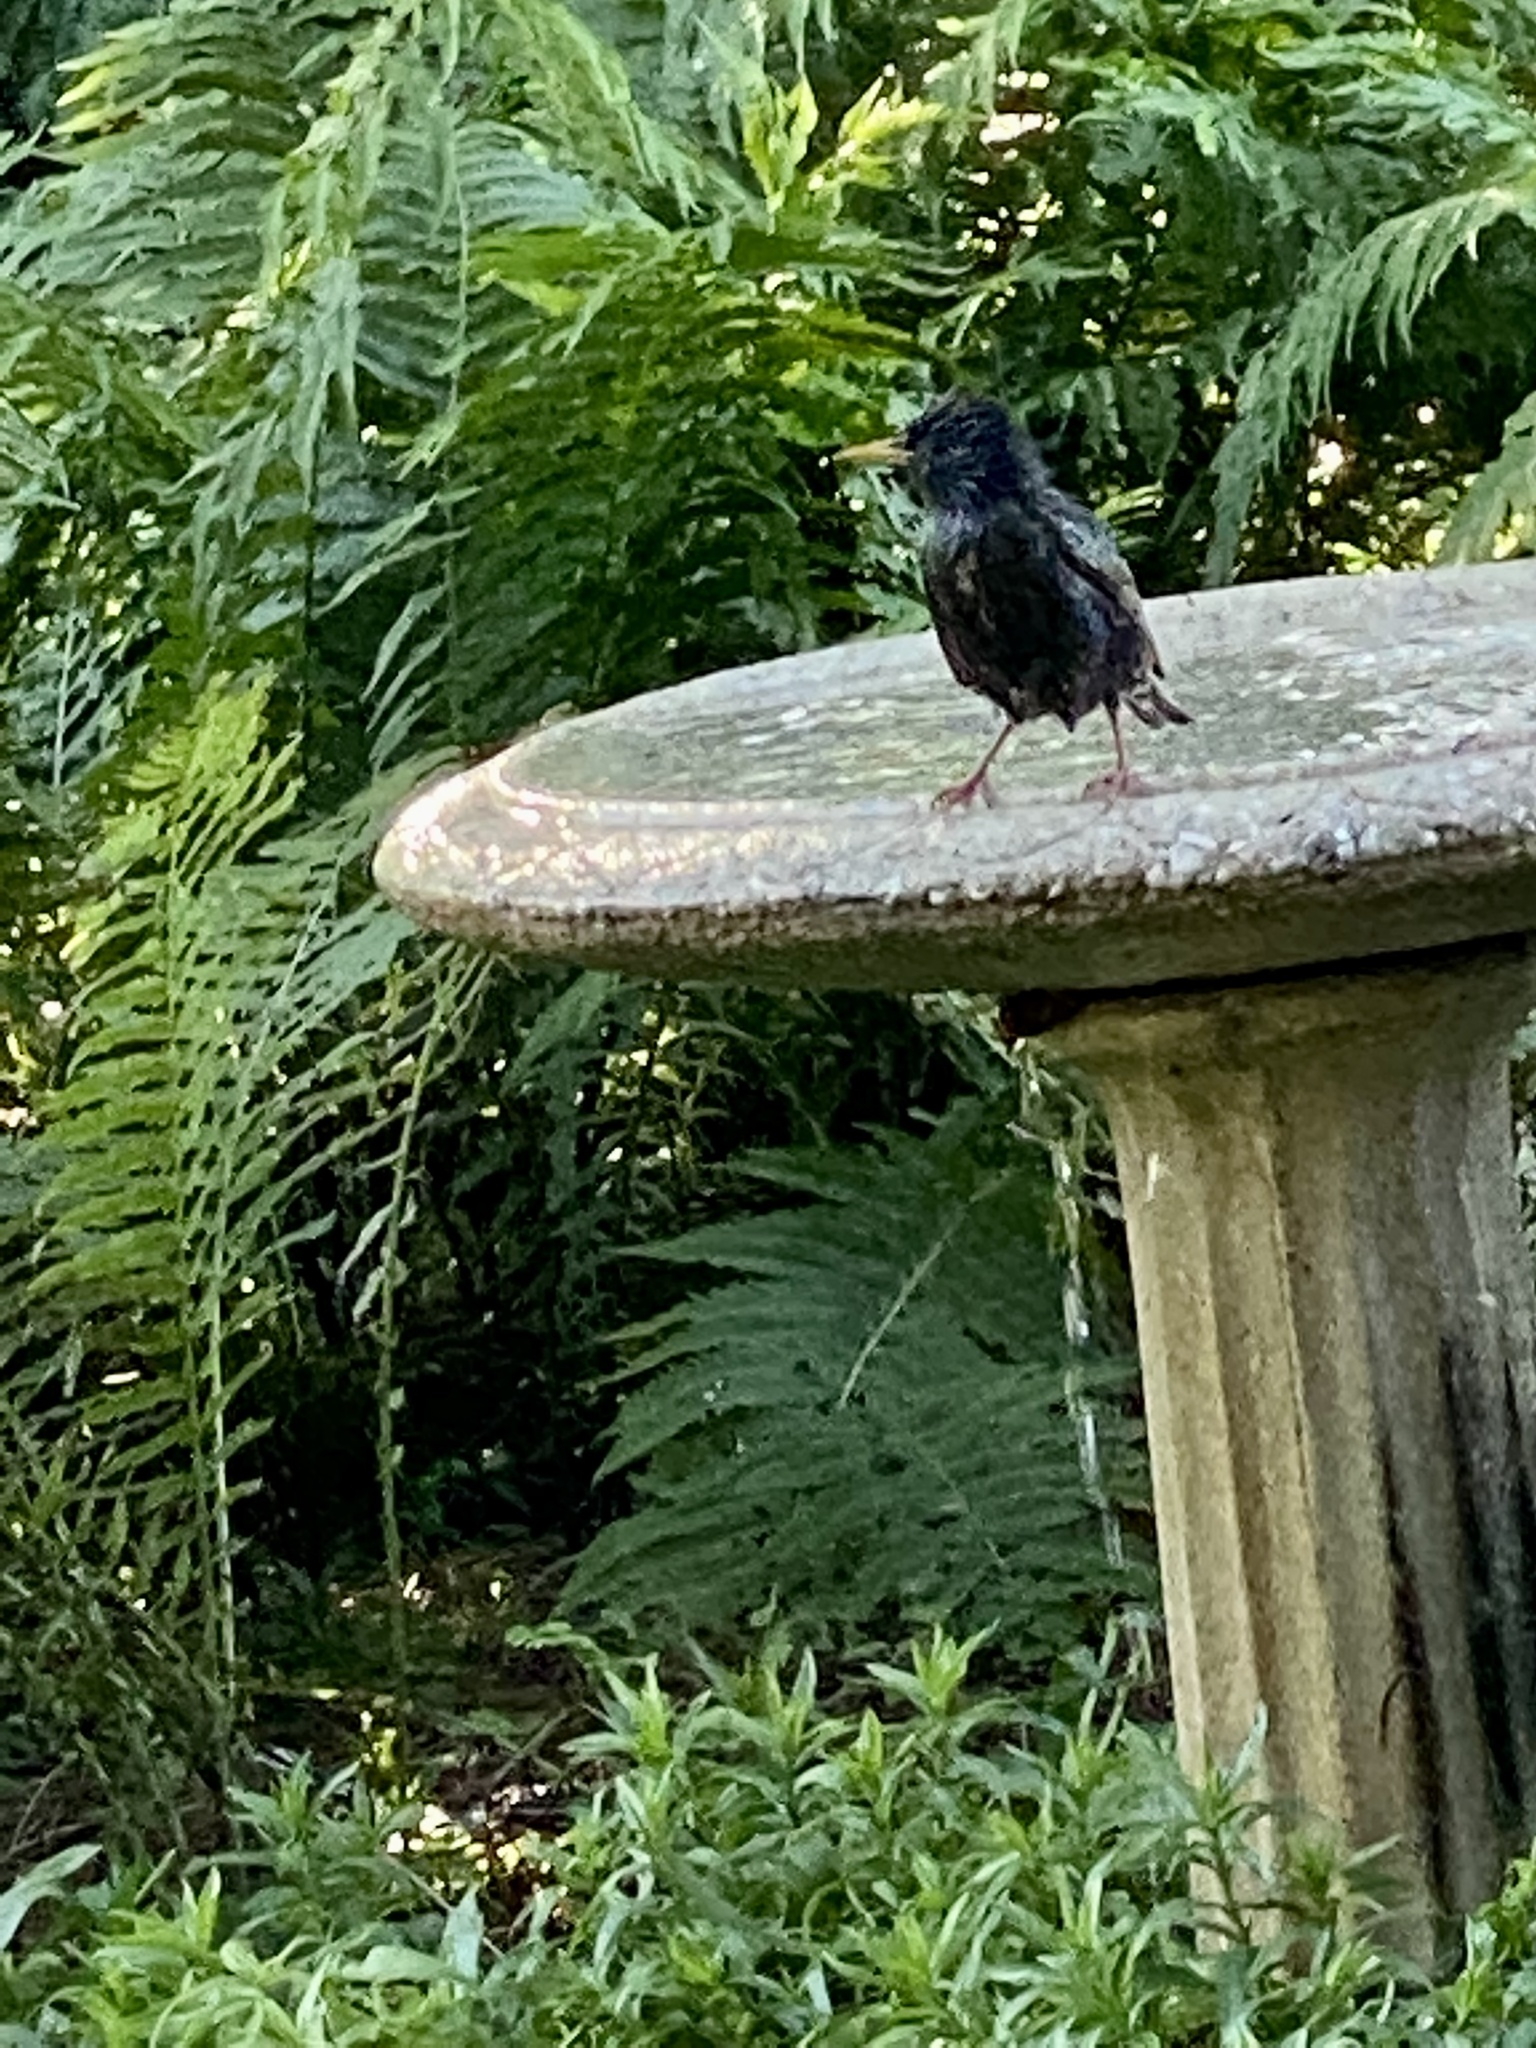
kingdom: Animalia
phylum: Chordata
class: Aves
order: Passeriformes
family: Sturnidae
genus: Sturnus
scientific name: Sturnus vulgaris
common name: Common starling
